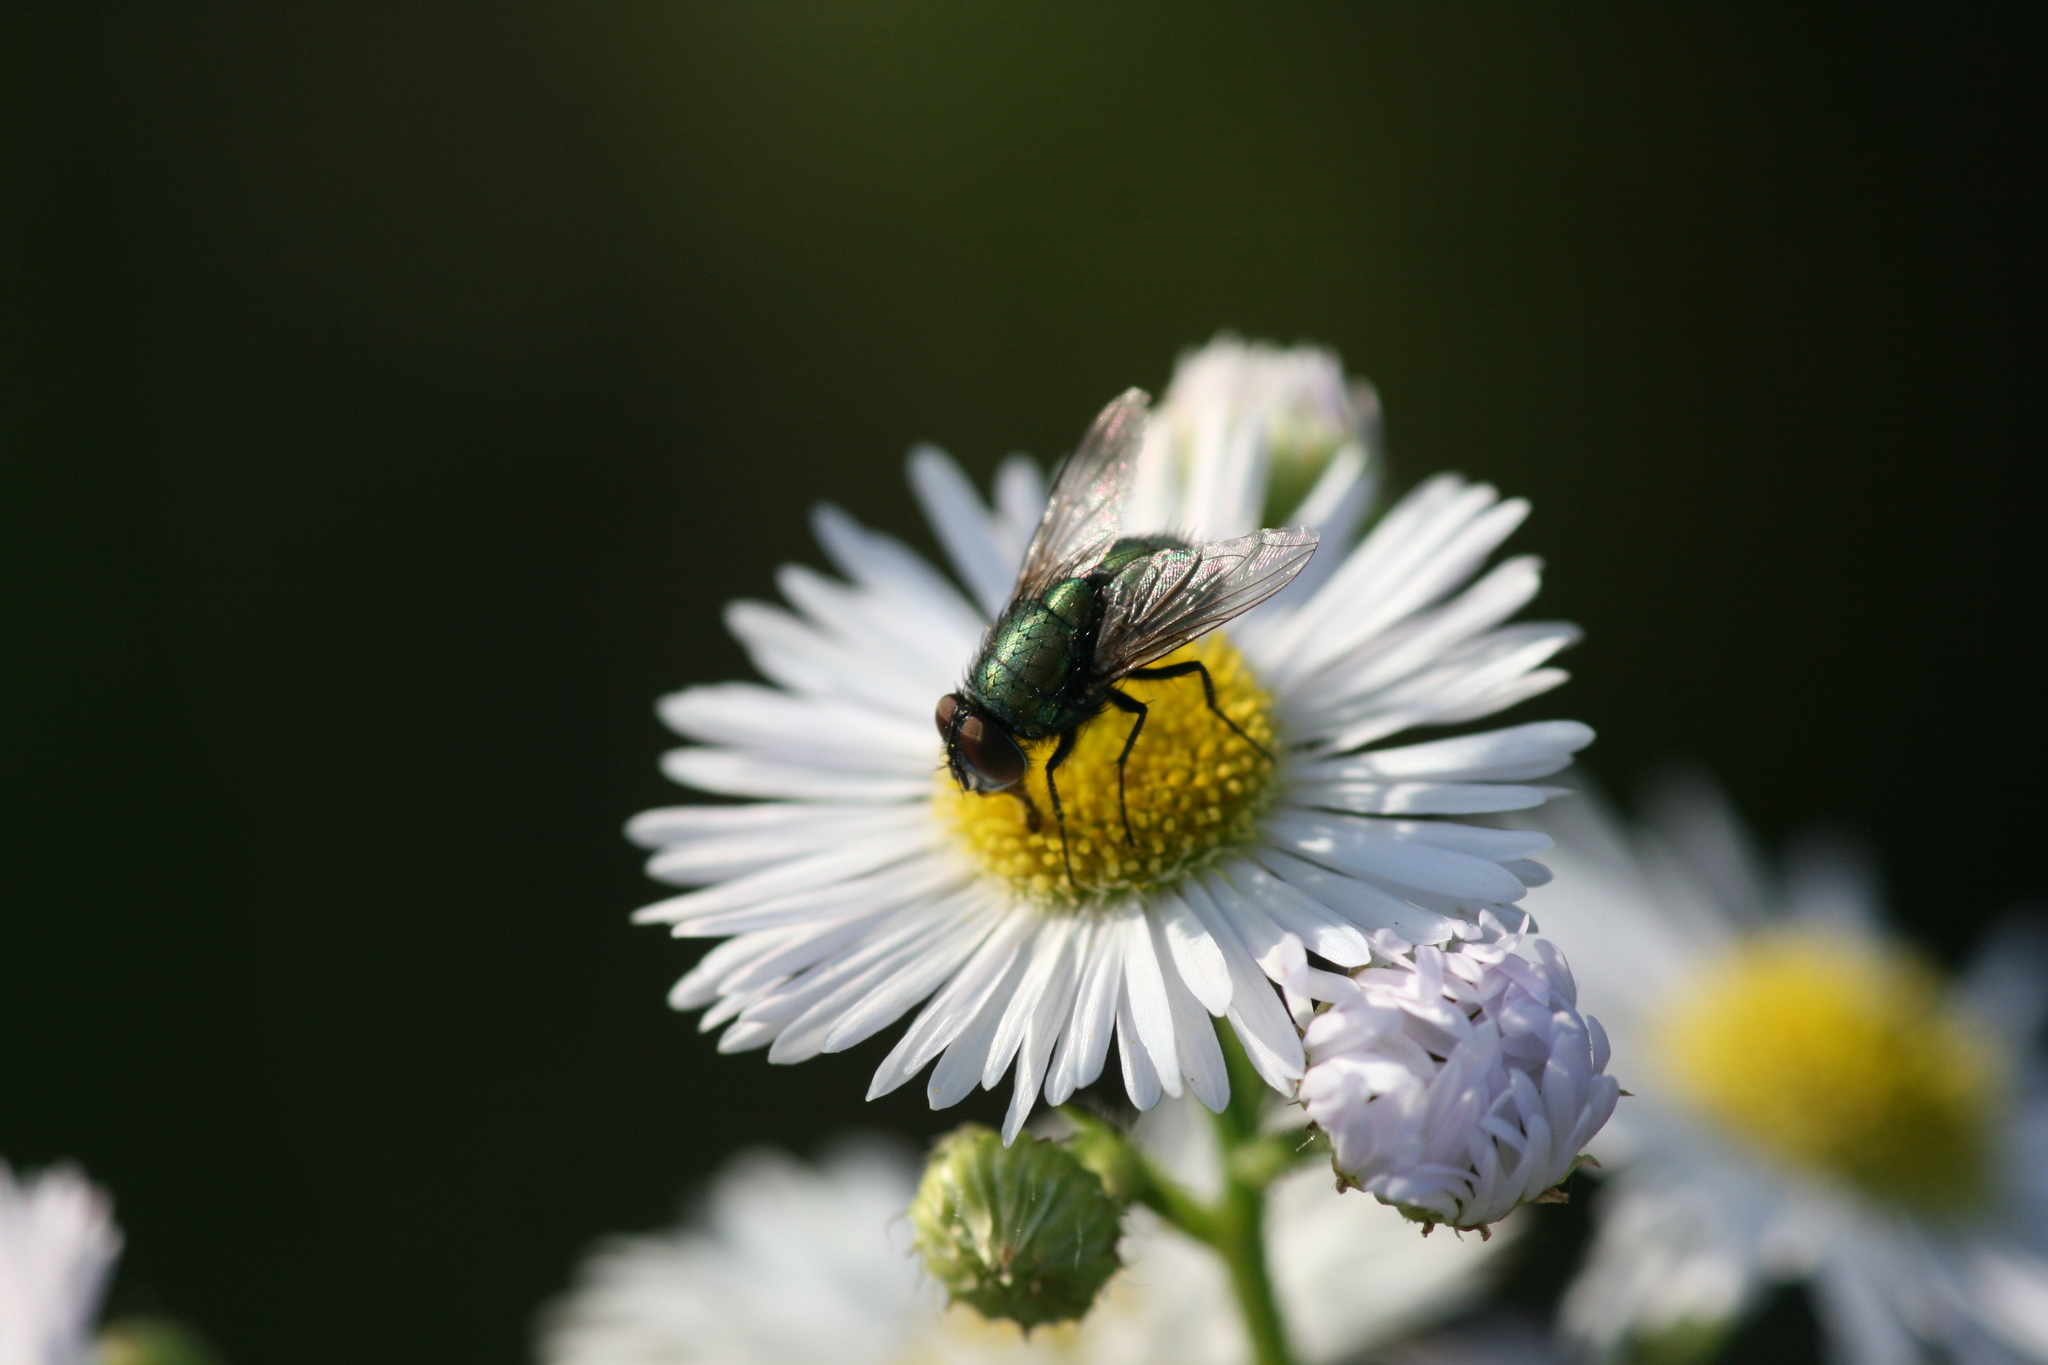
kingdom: Animalia
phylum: Arthropoda
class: Insecta
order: Diptera
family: Tachinidae
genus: Phasia
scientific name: Phasia obesa
